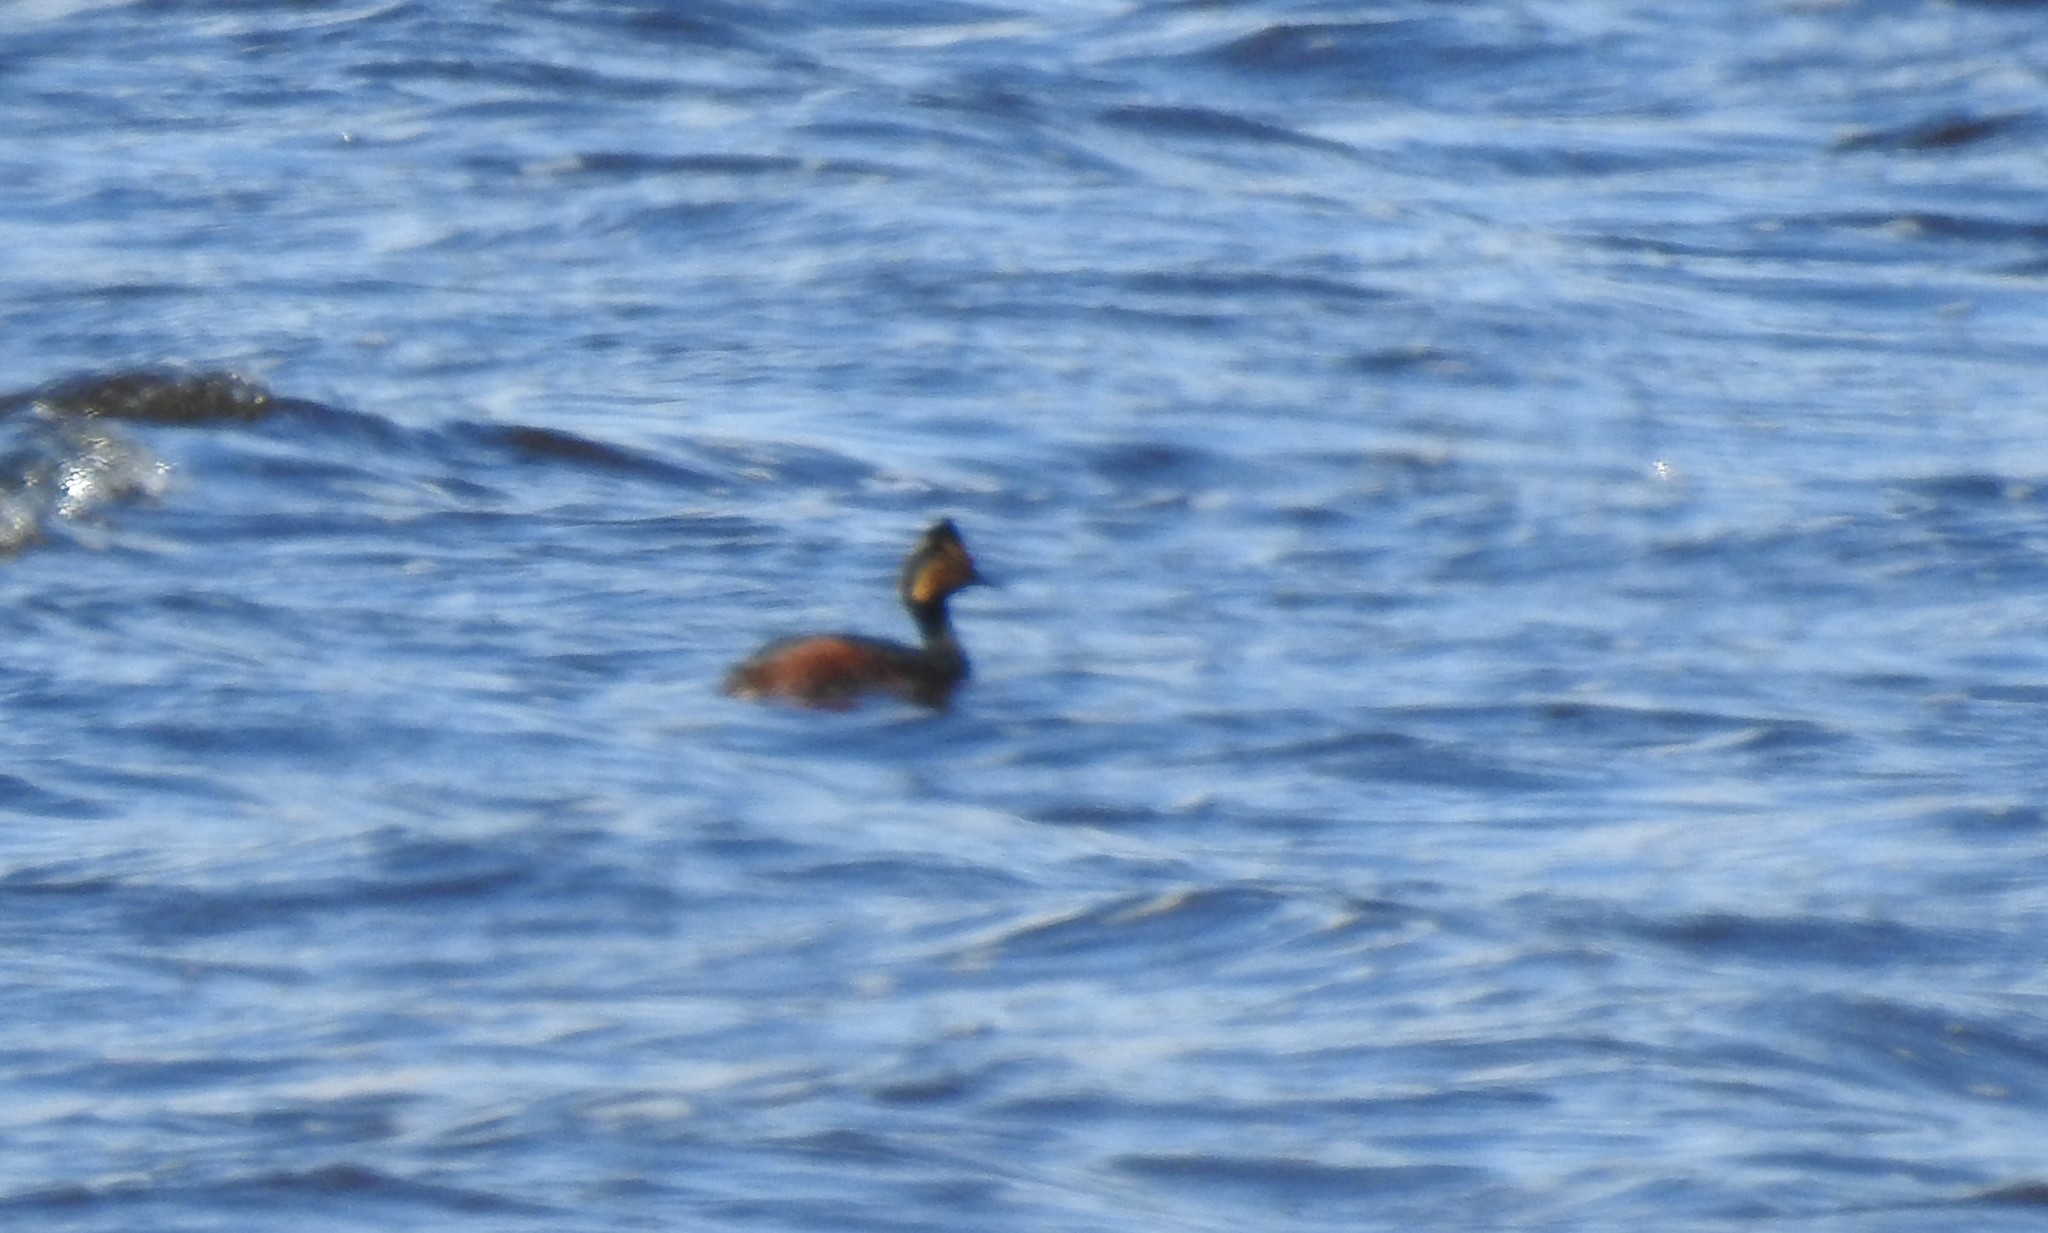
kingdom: Animalia
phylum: Chordata
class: Aves
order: Podicipediformes
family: Podicipedidae
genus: Podiceps
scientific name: Podiceps nigricollis
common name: Black-necked grebe
